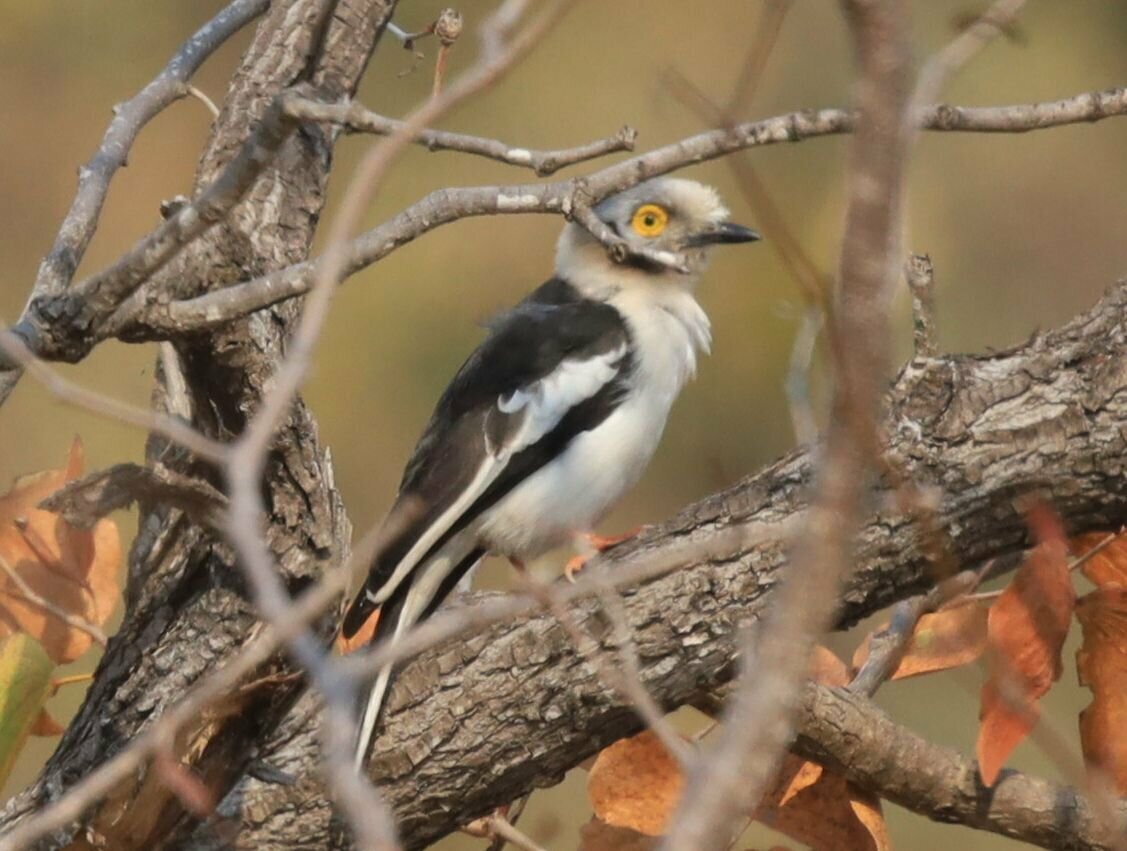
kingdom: Animalia
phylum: Chordata
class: Aves
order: Passeriformes
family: Prionopidae
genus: Prionops
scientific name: Prionops plumatus
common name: White-crested helmetshrike
